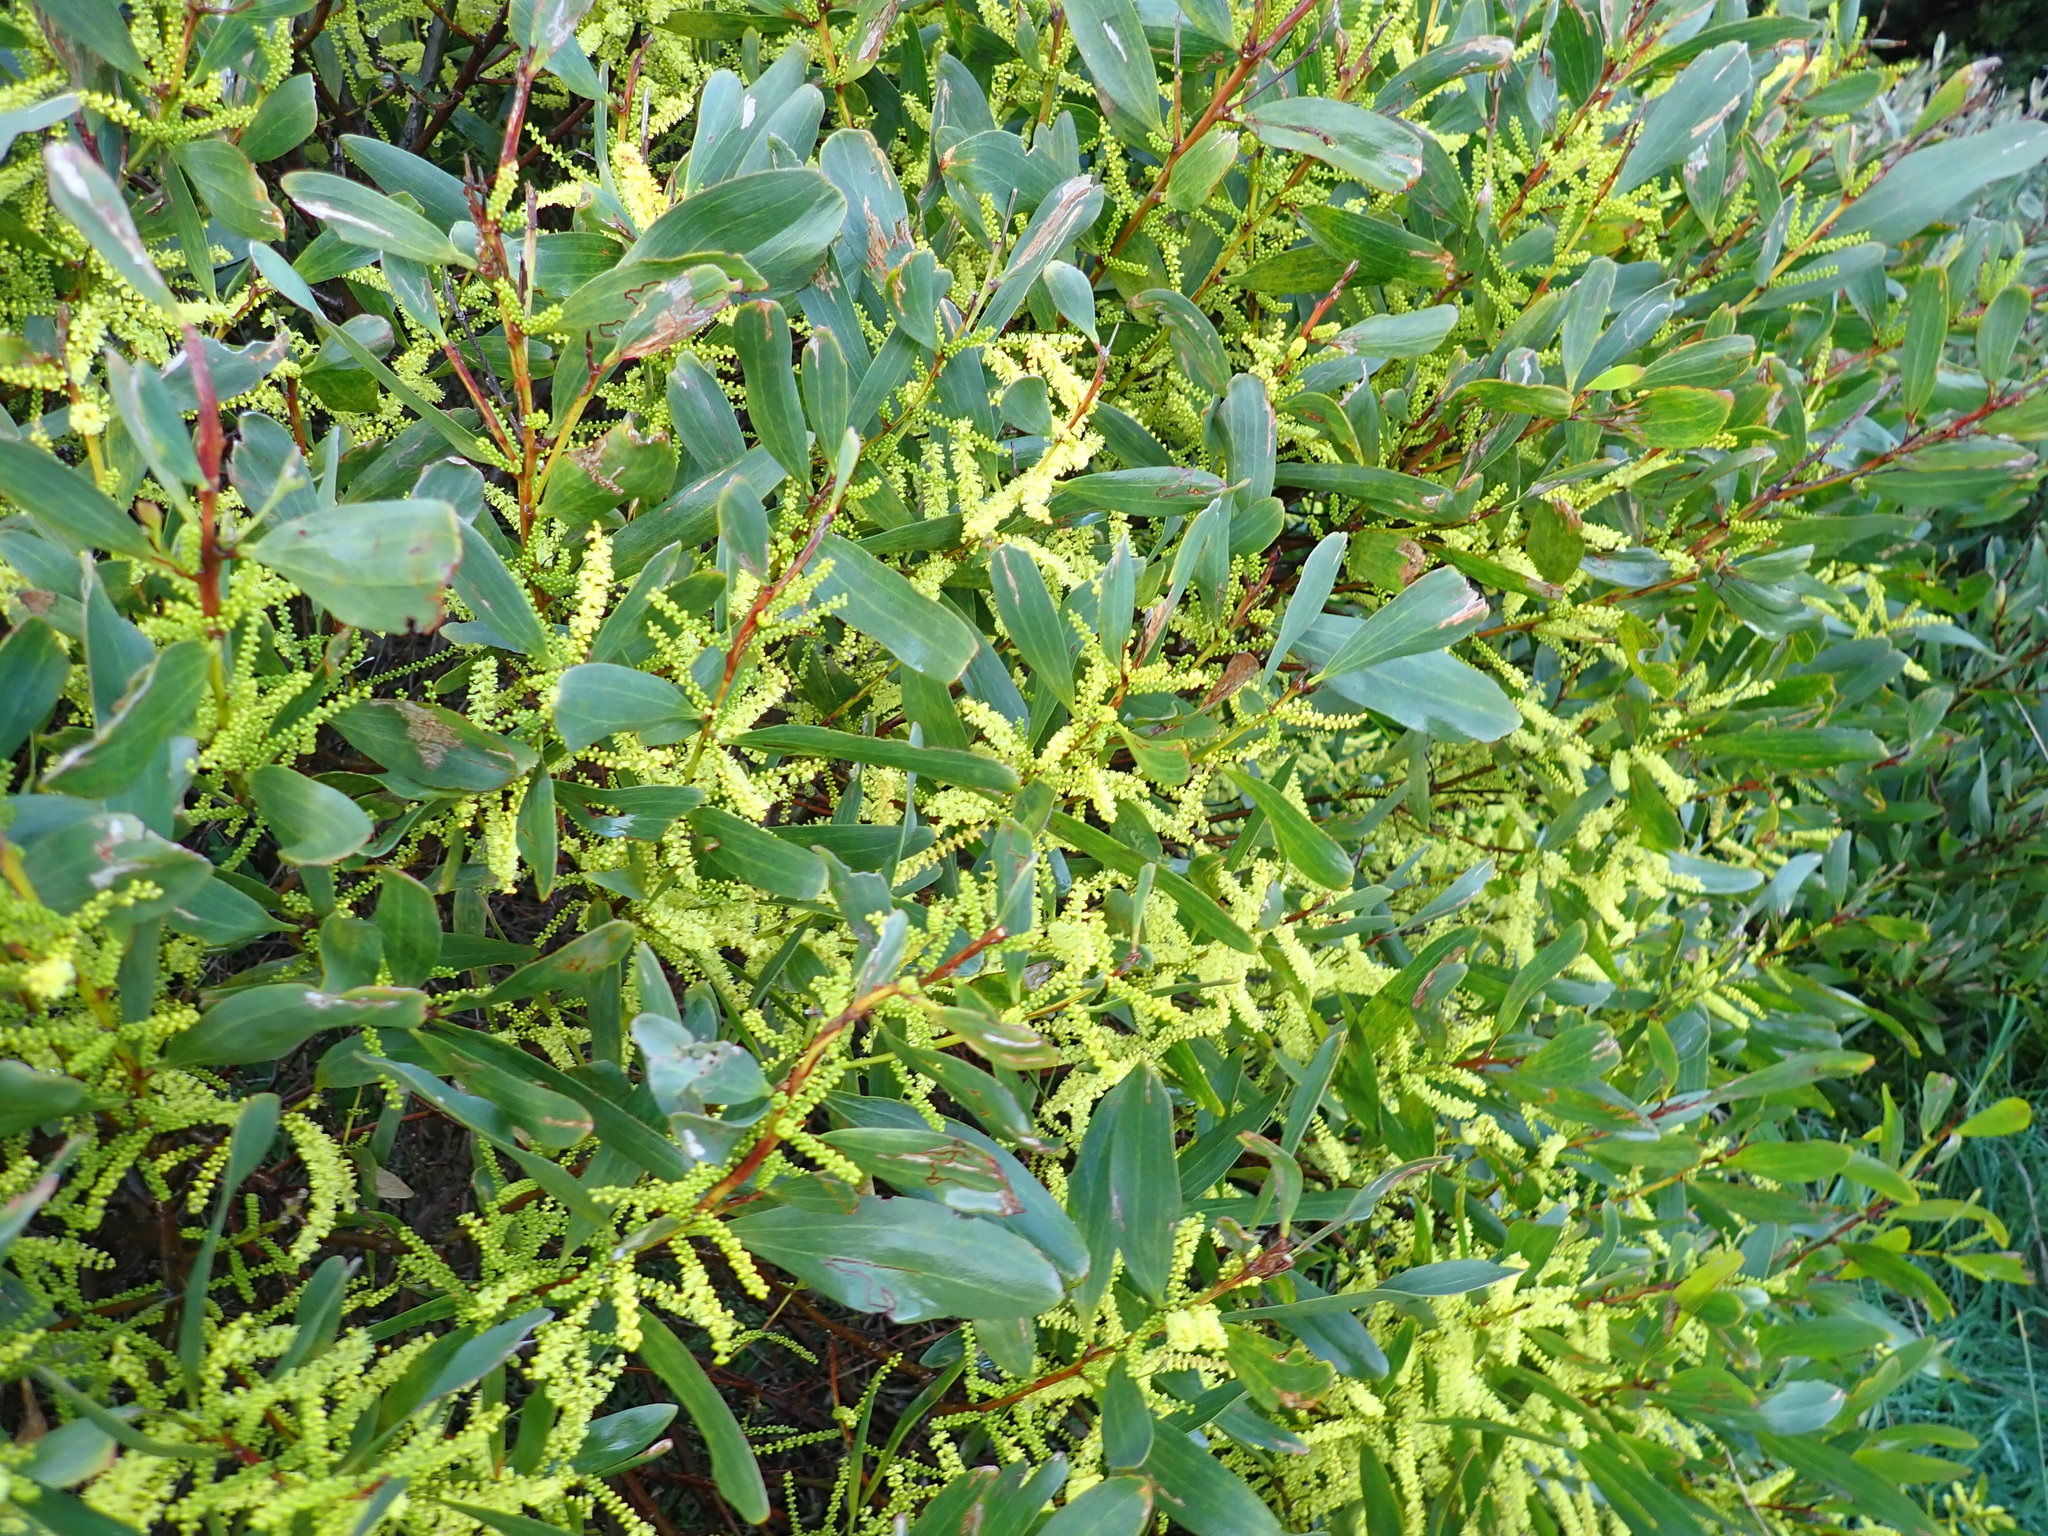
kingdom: Plantae
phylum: Tracheophyta
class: Magnoliopsida
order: Fabales
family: Fabaceae
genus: Acacia
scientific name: Acacia longifolia
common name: Sydney golden wattle
